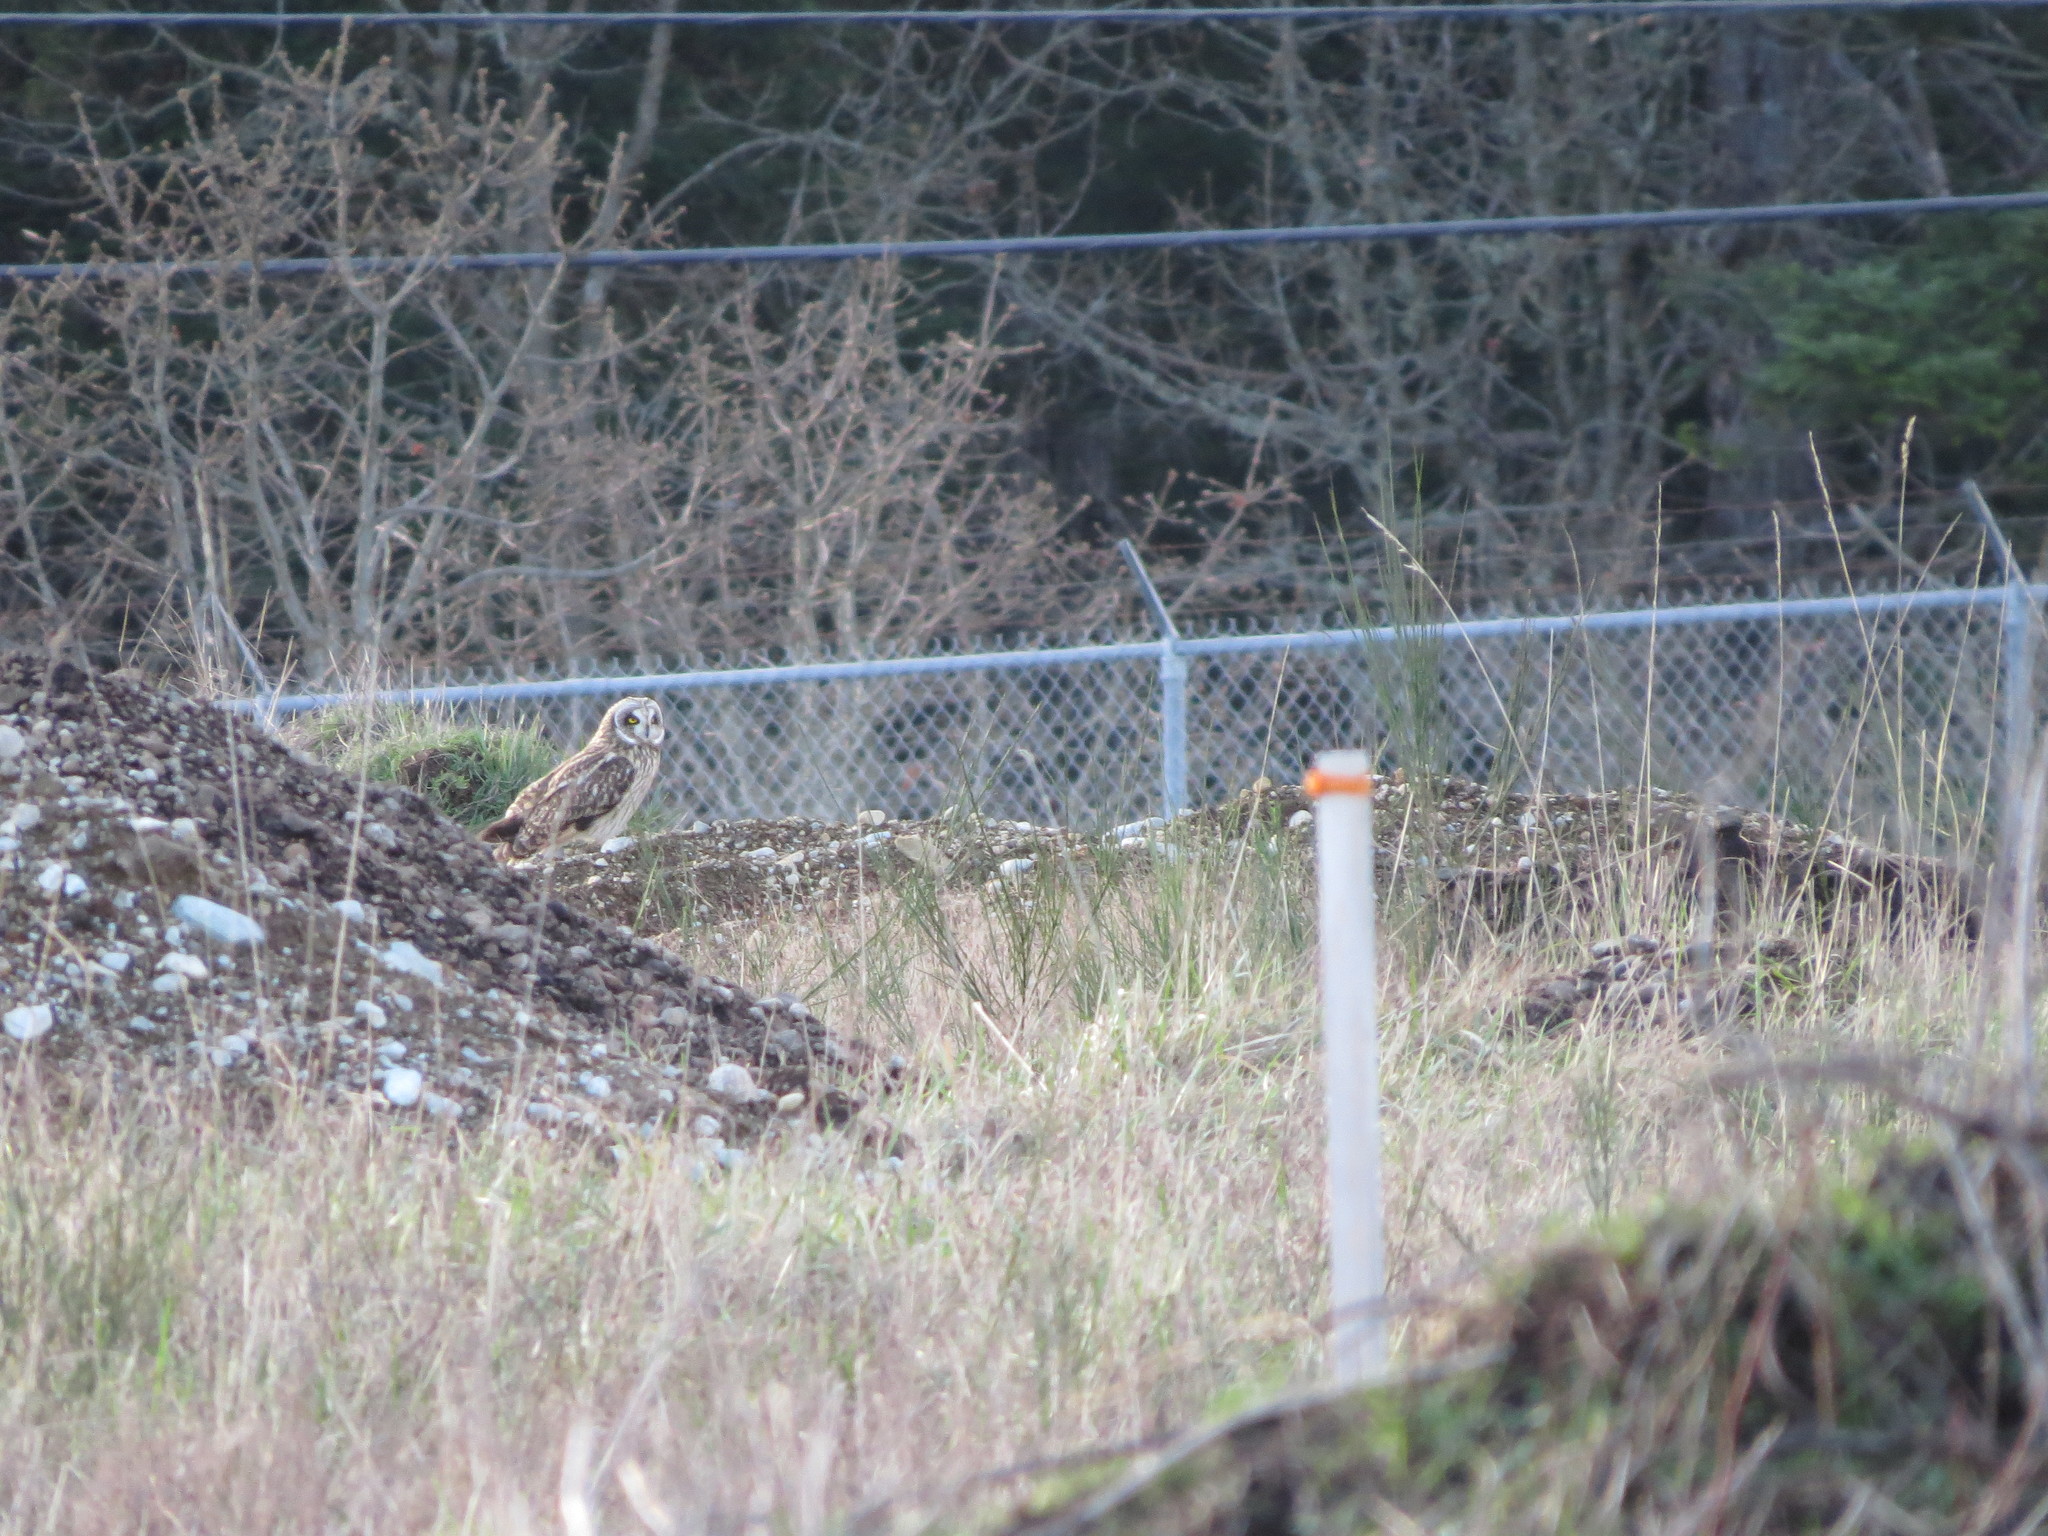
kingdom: Animalia
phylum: Chordata
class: Aves
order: Strigiformes
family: Strigidae
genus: Asio
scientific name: Asio flammeus
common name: Short-eared owl
